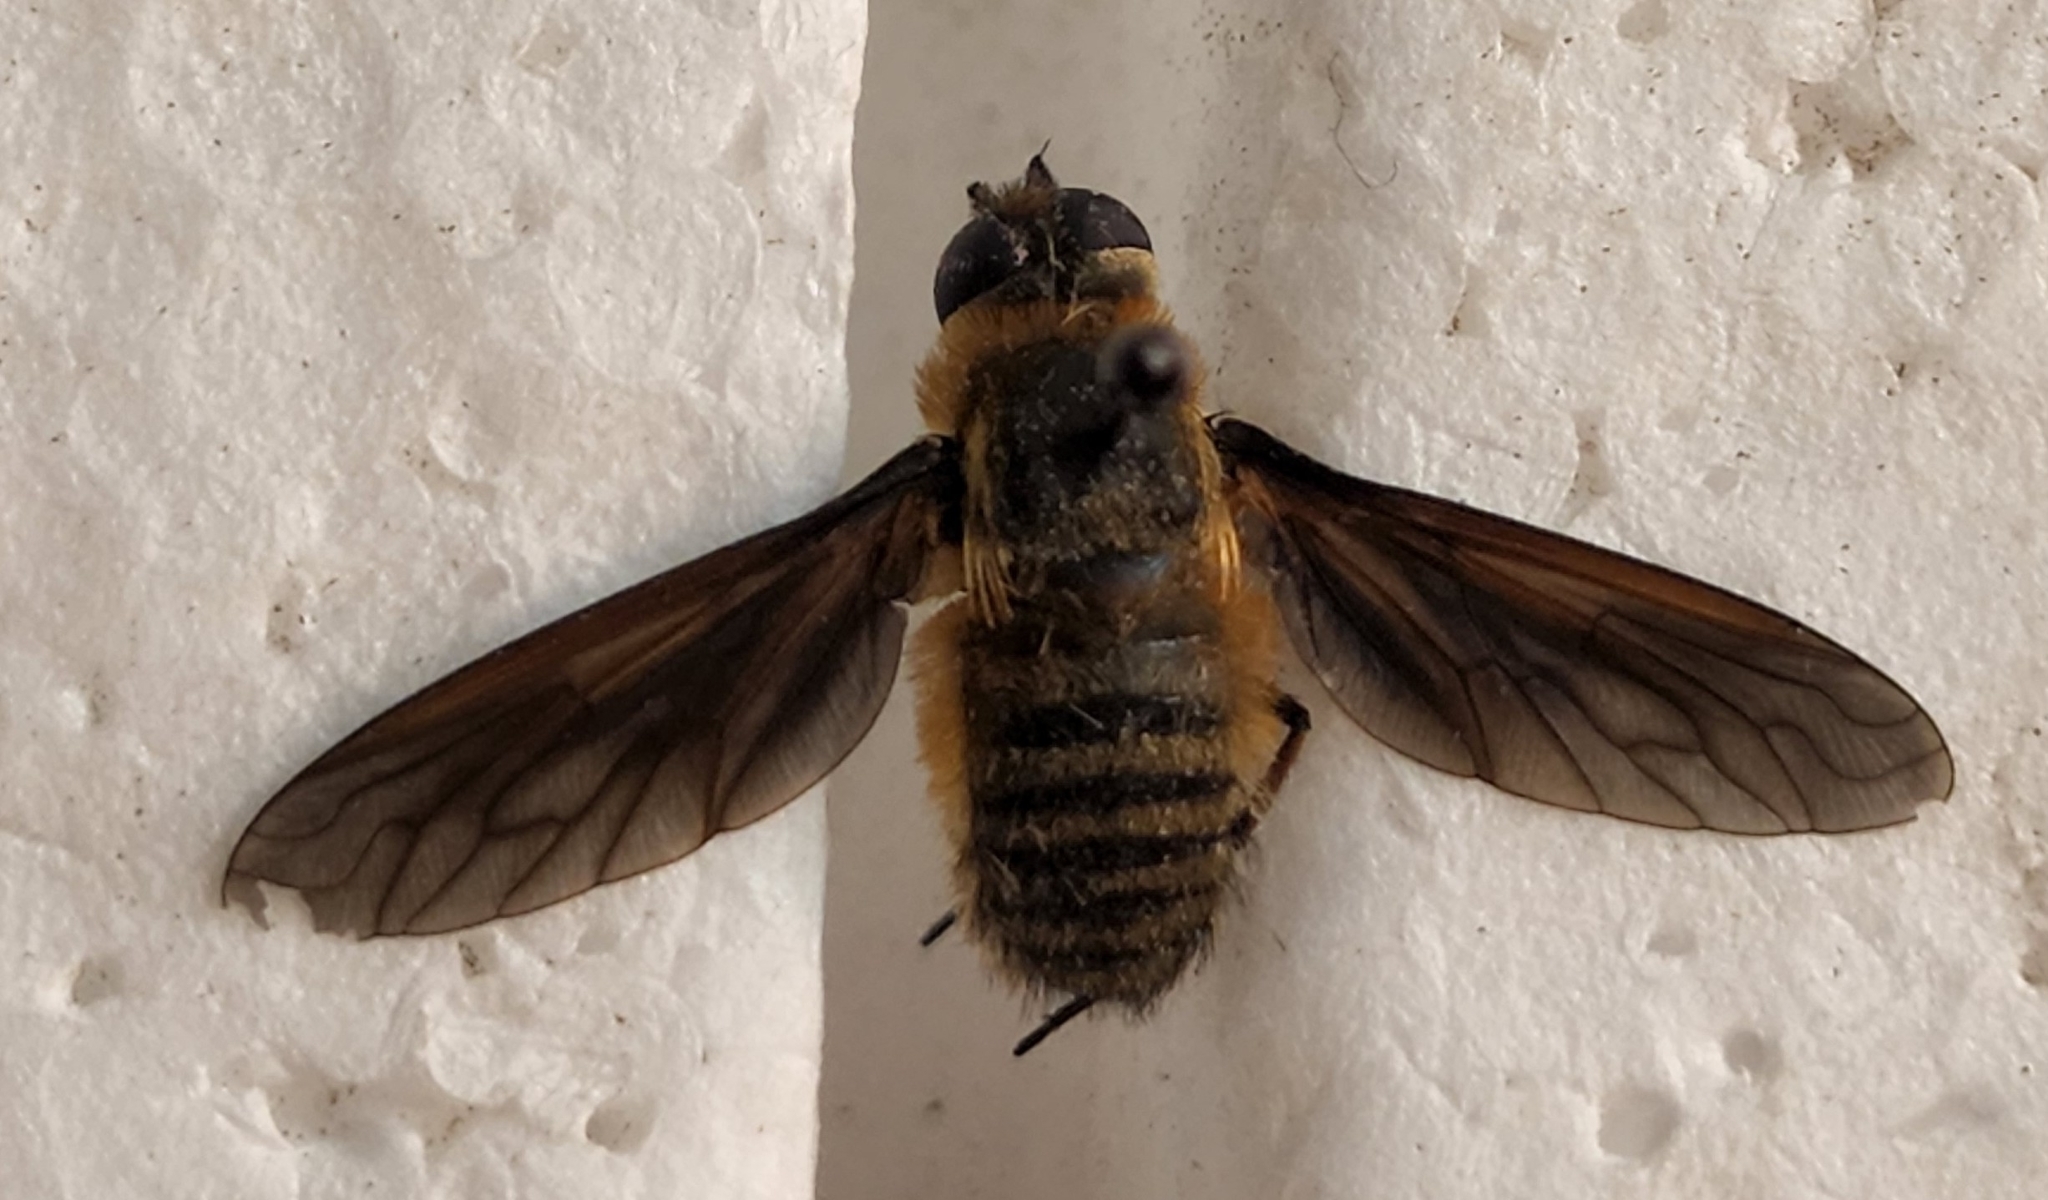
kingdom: Animalia
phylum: Arthropoda
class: Insecta
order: Diptera
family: Bombyliidae
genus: Poecilanthrax
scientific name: Poecilanthrax lucifer
